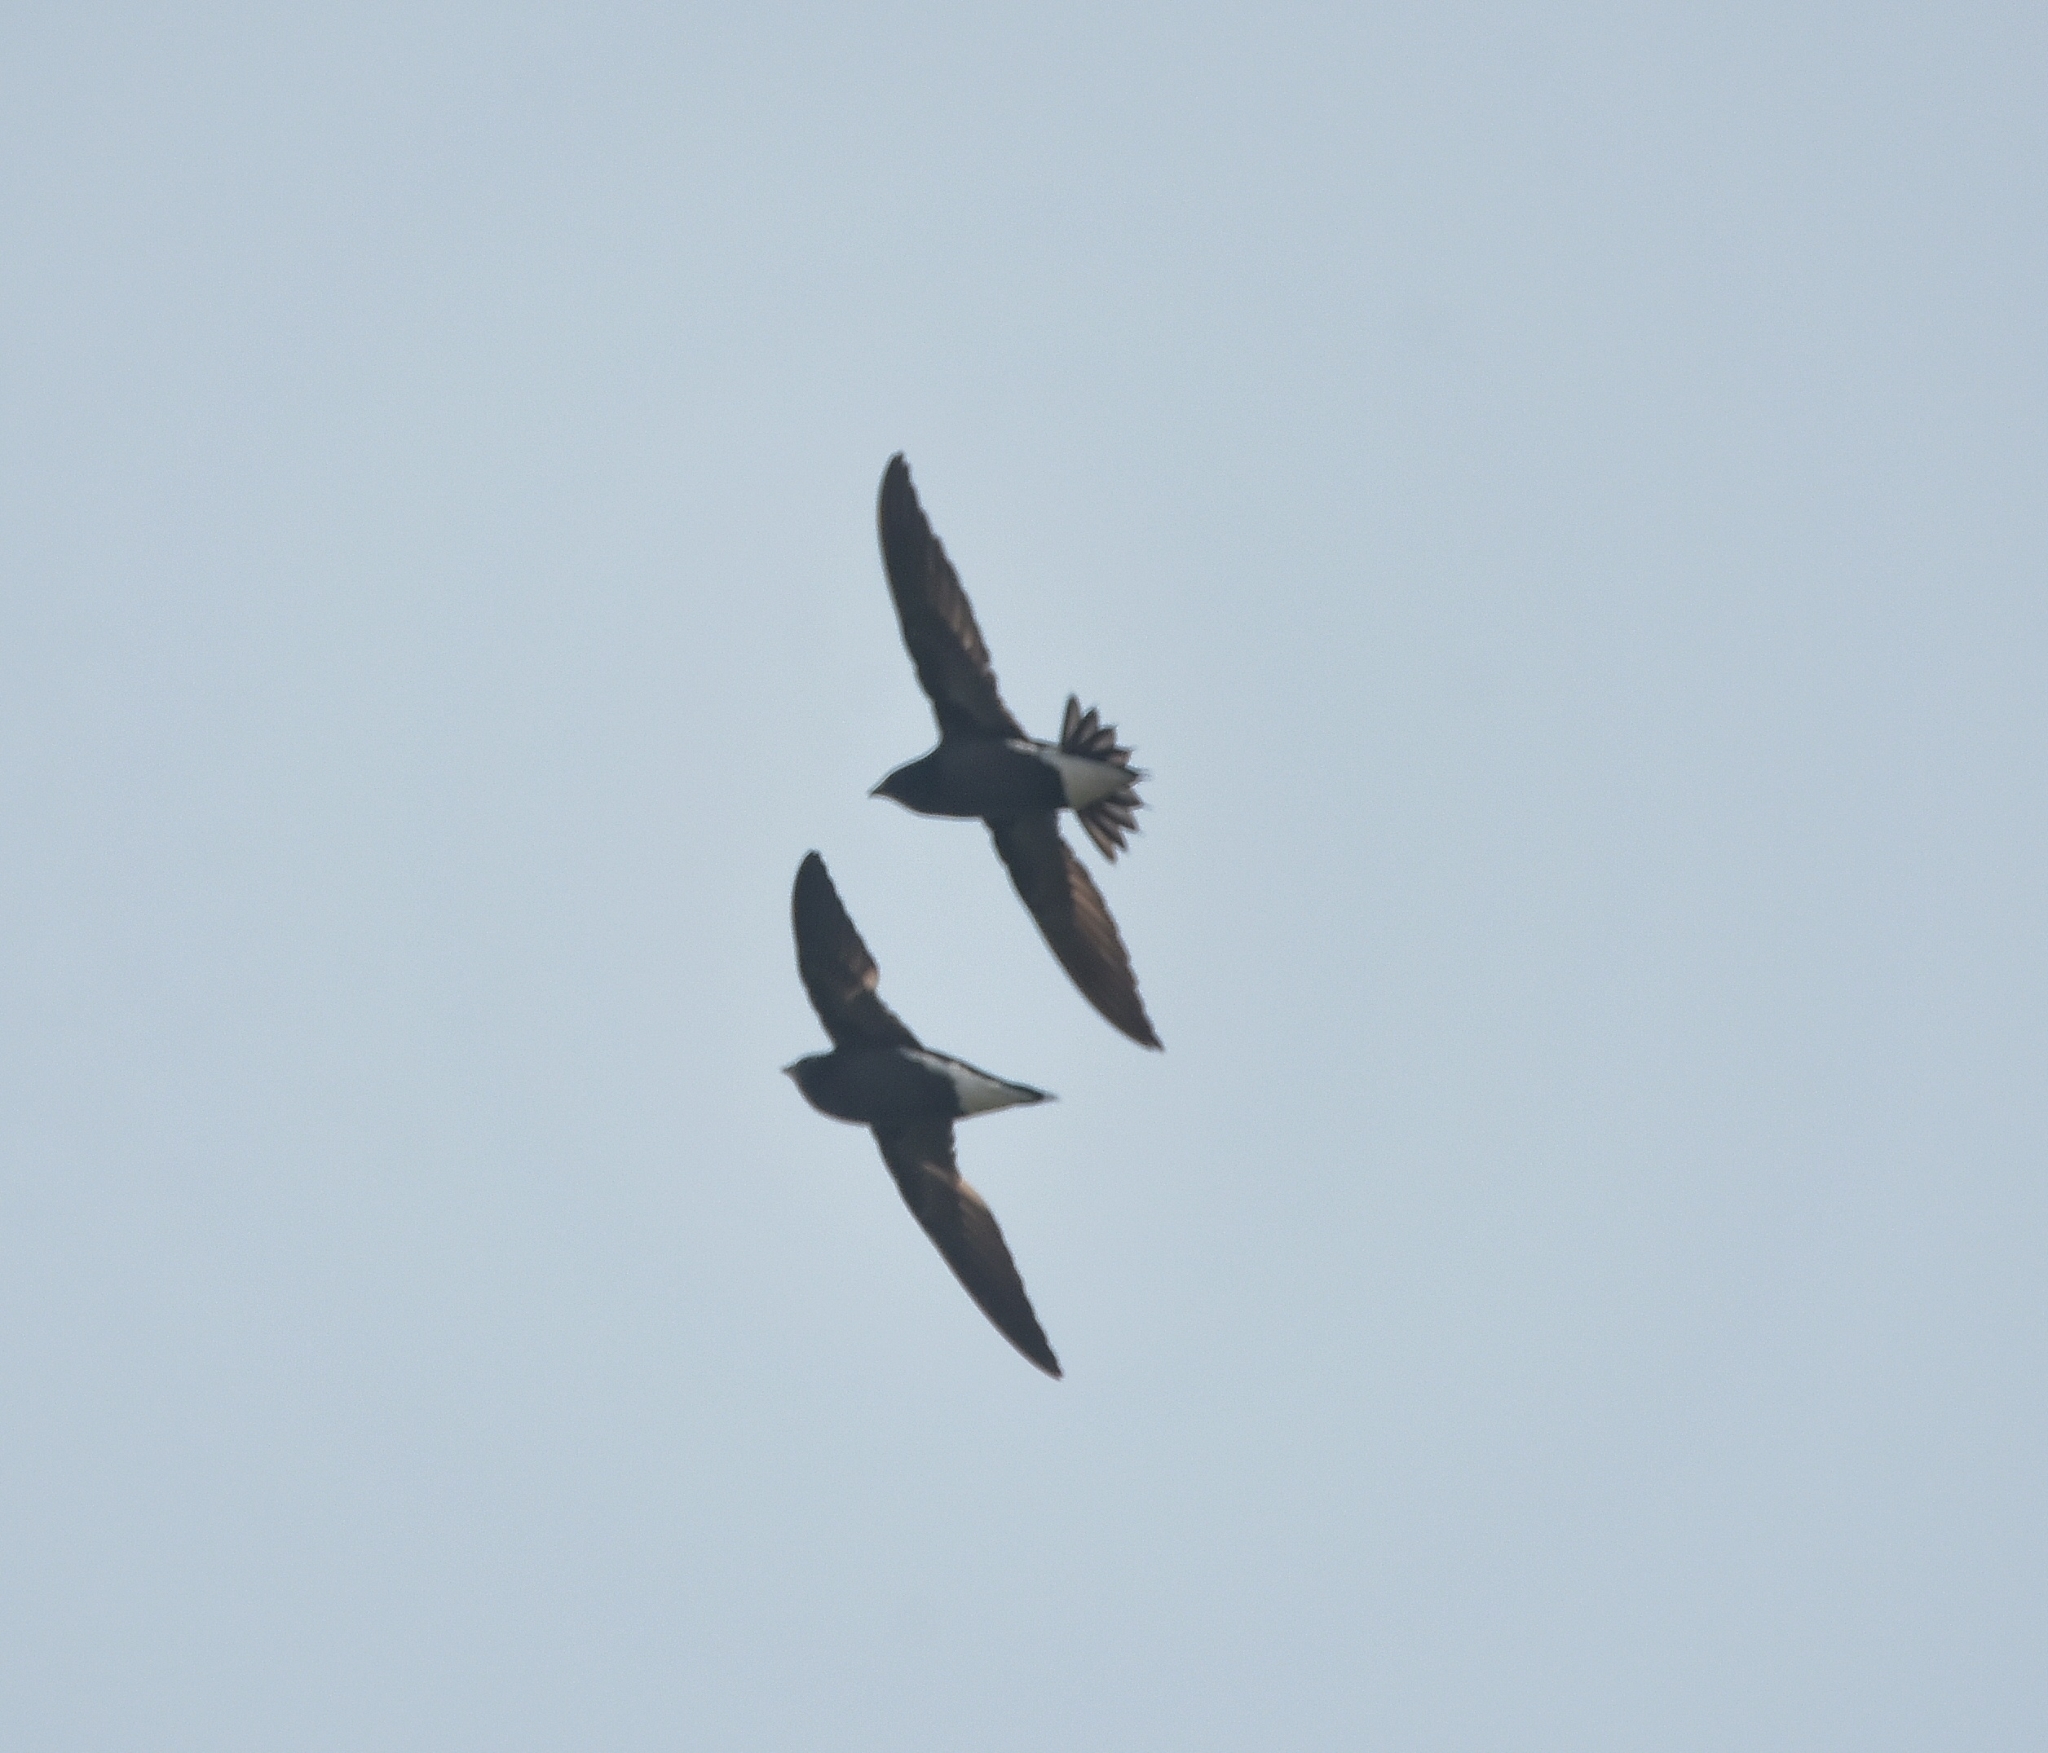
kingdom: Animalia
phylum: Chordata
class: Aves
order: Apodiformes
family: Apodidae
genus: Hirundapus
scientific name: Hirundapus giganteus
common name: Brown-backed needletail
